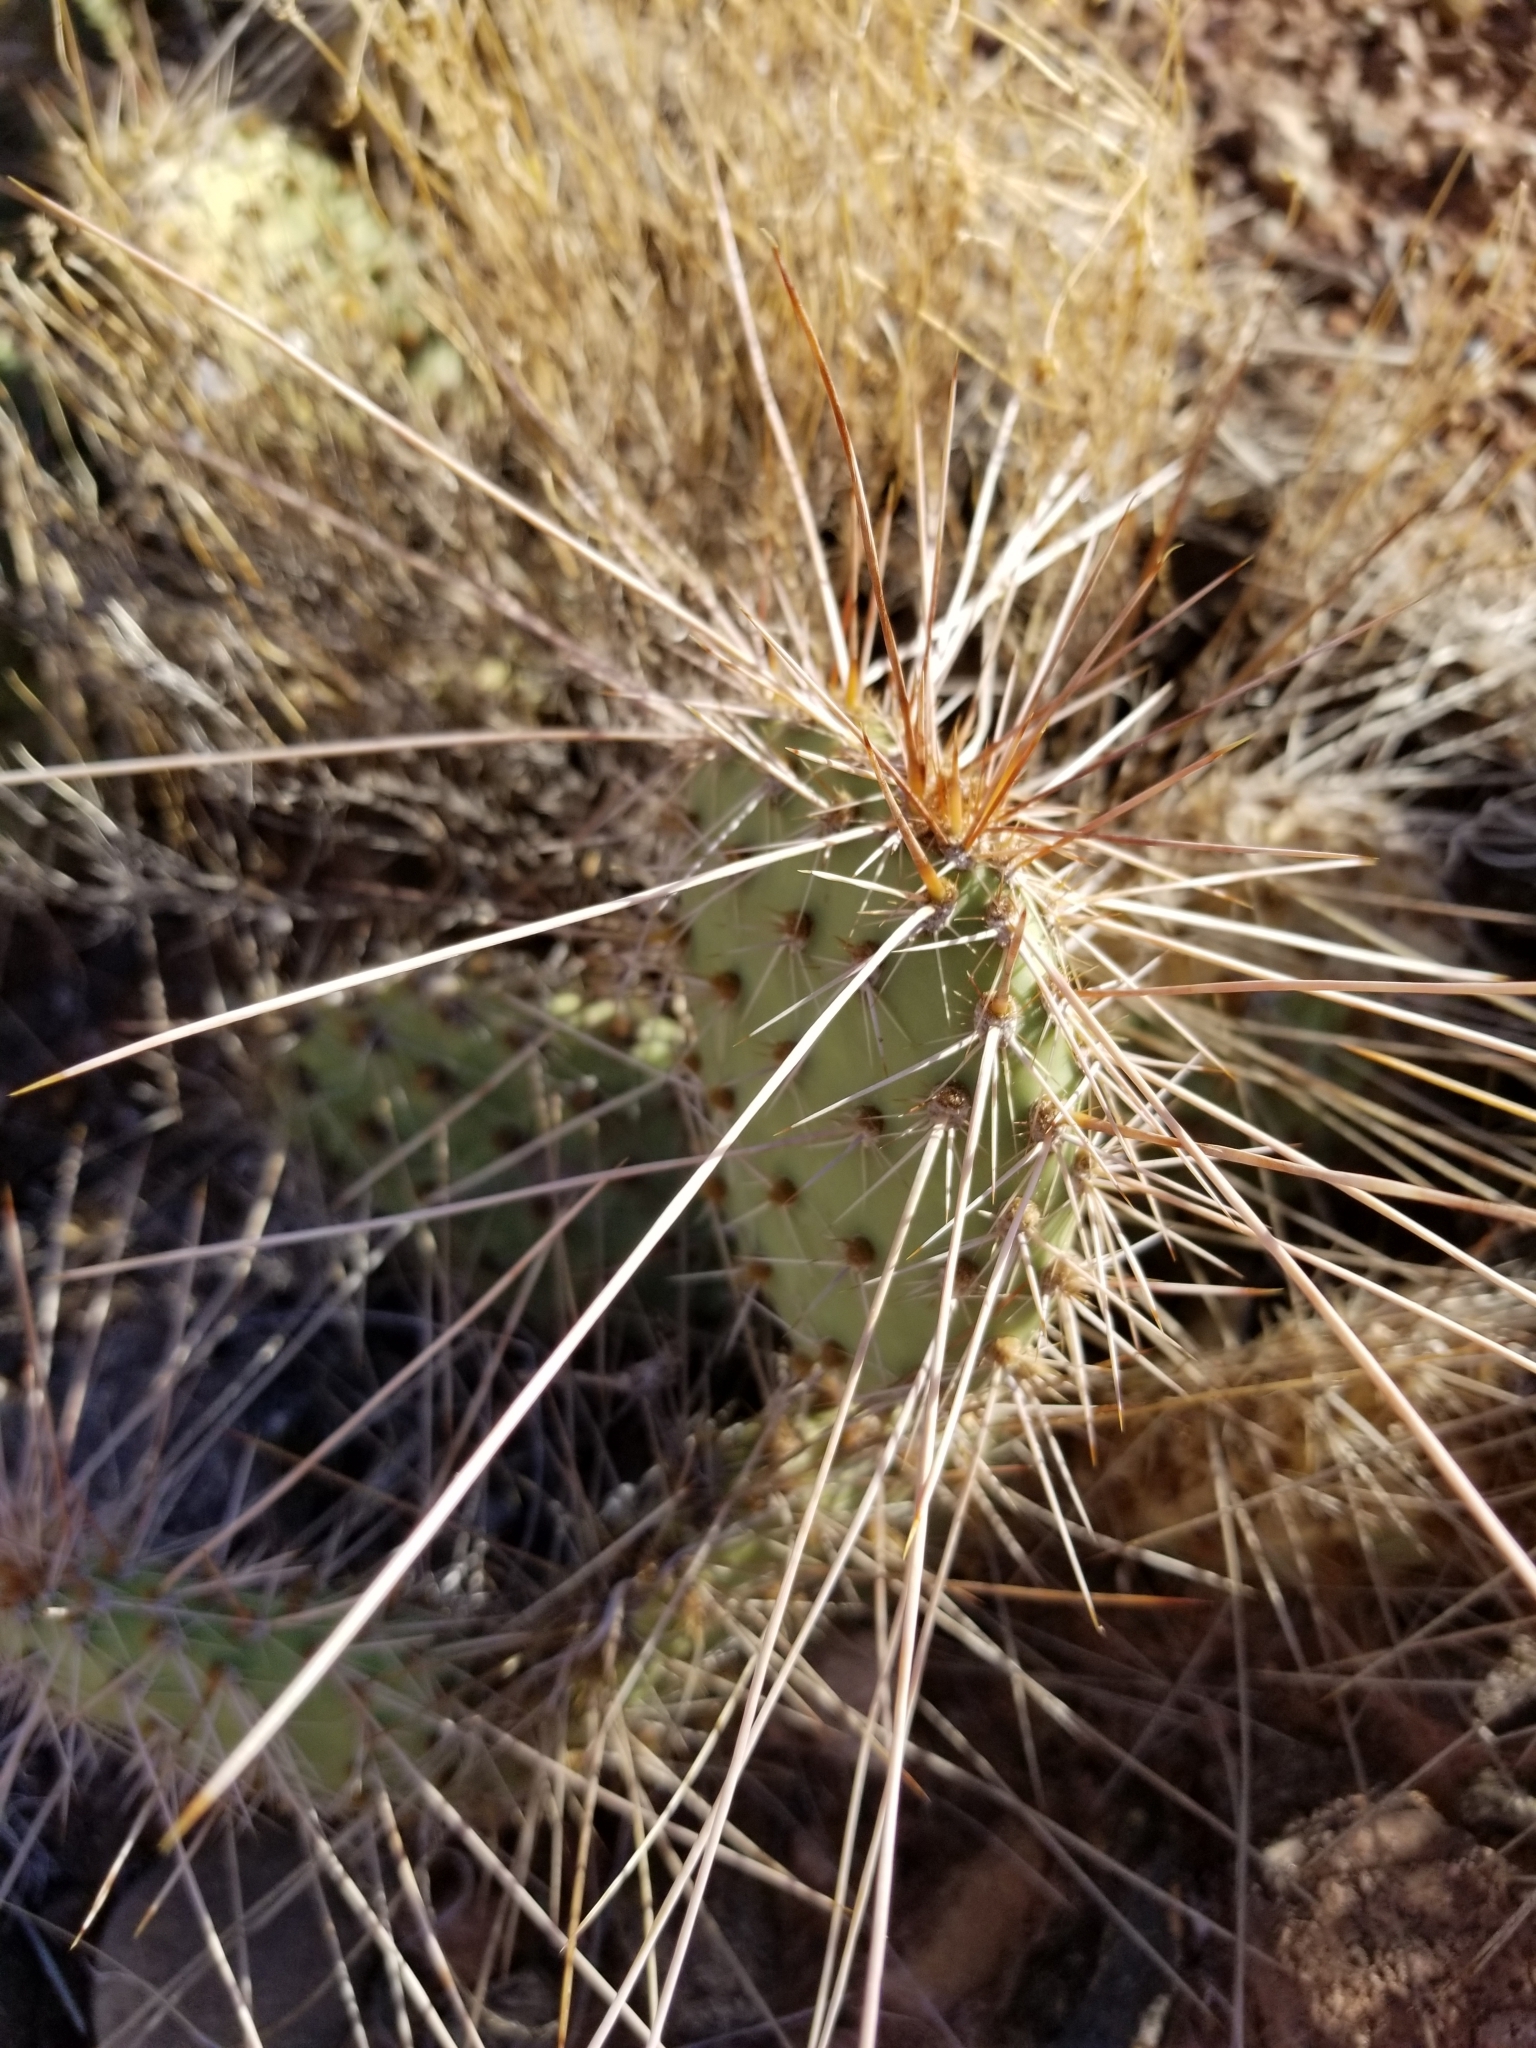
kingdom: Plantae
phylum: Tracheophyta
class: Magnoliopsida
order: Caryophyllales
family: Cactaceae
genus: Opuntia
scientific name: Opuntia polyacantha
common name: Plains prickly-pear
